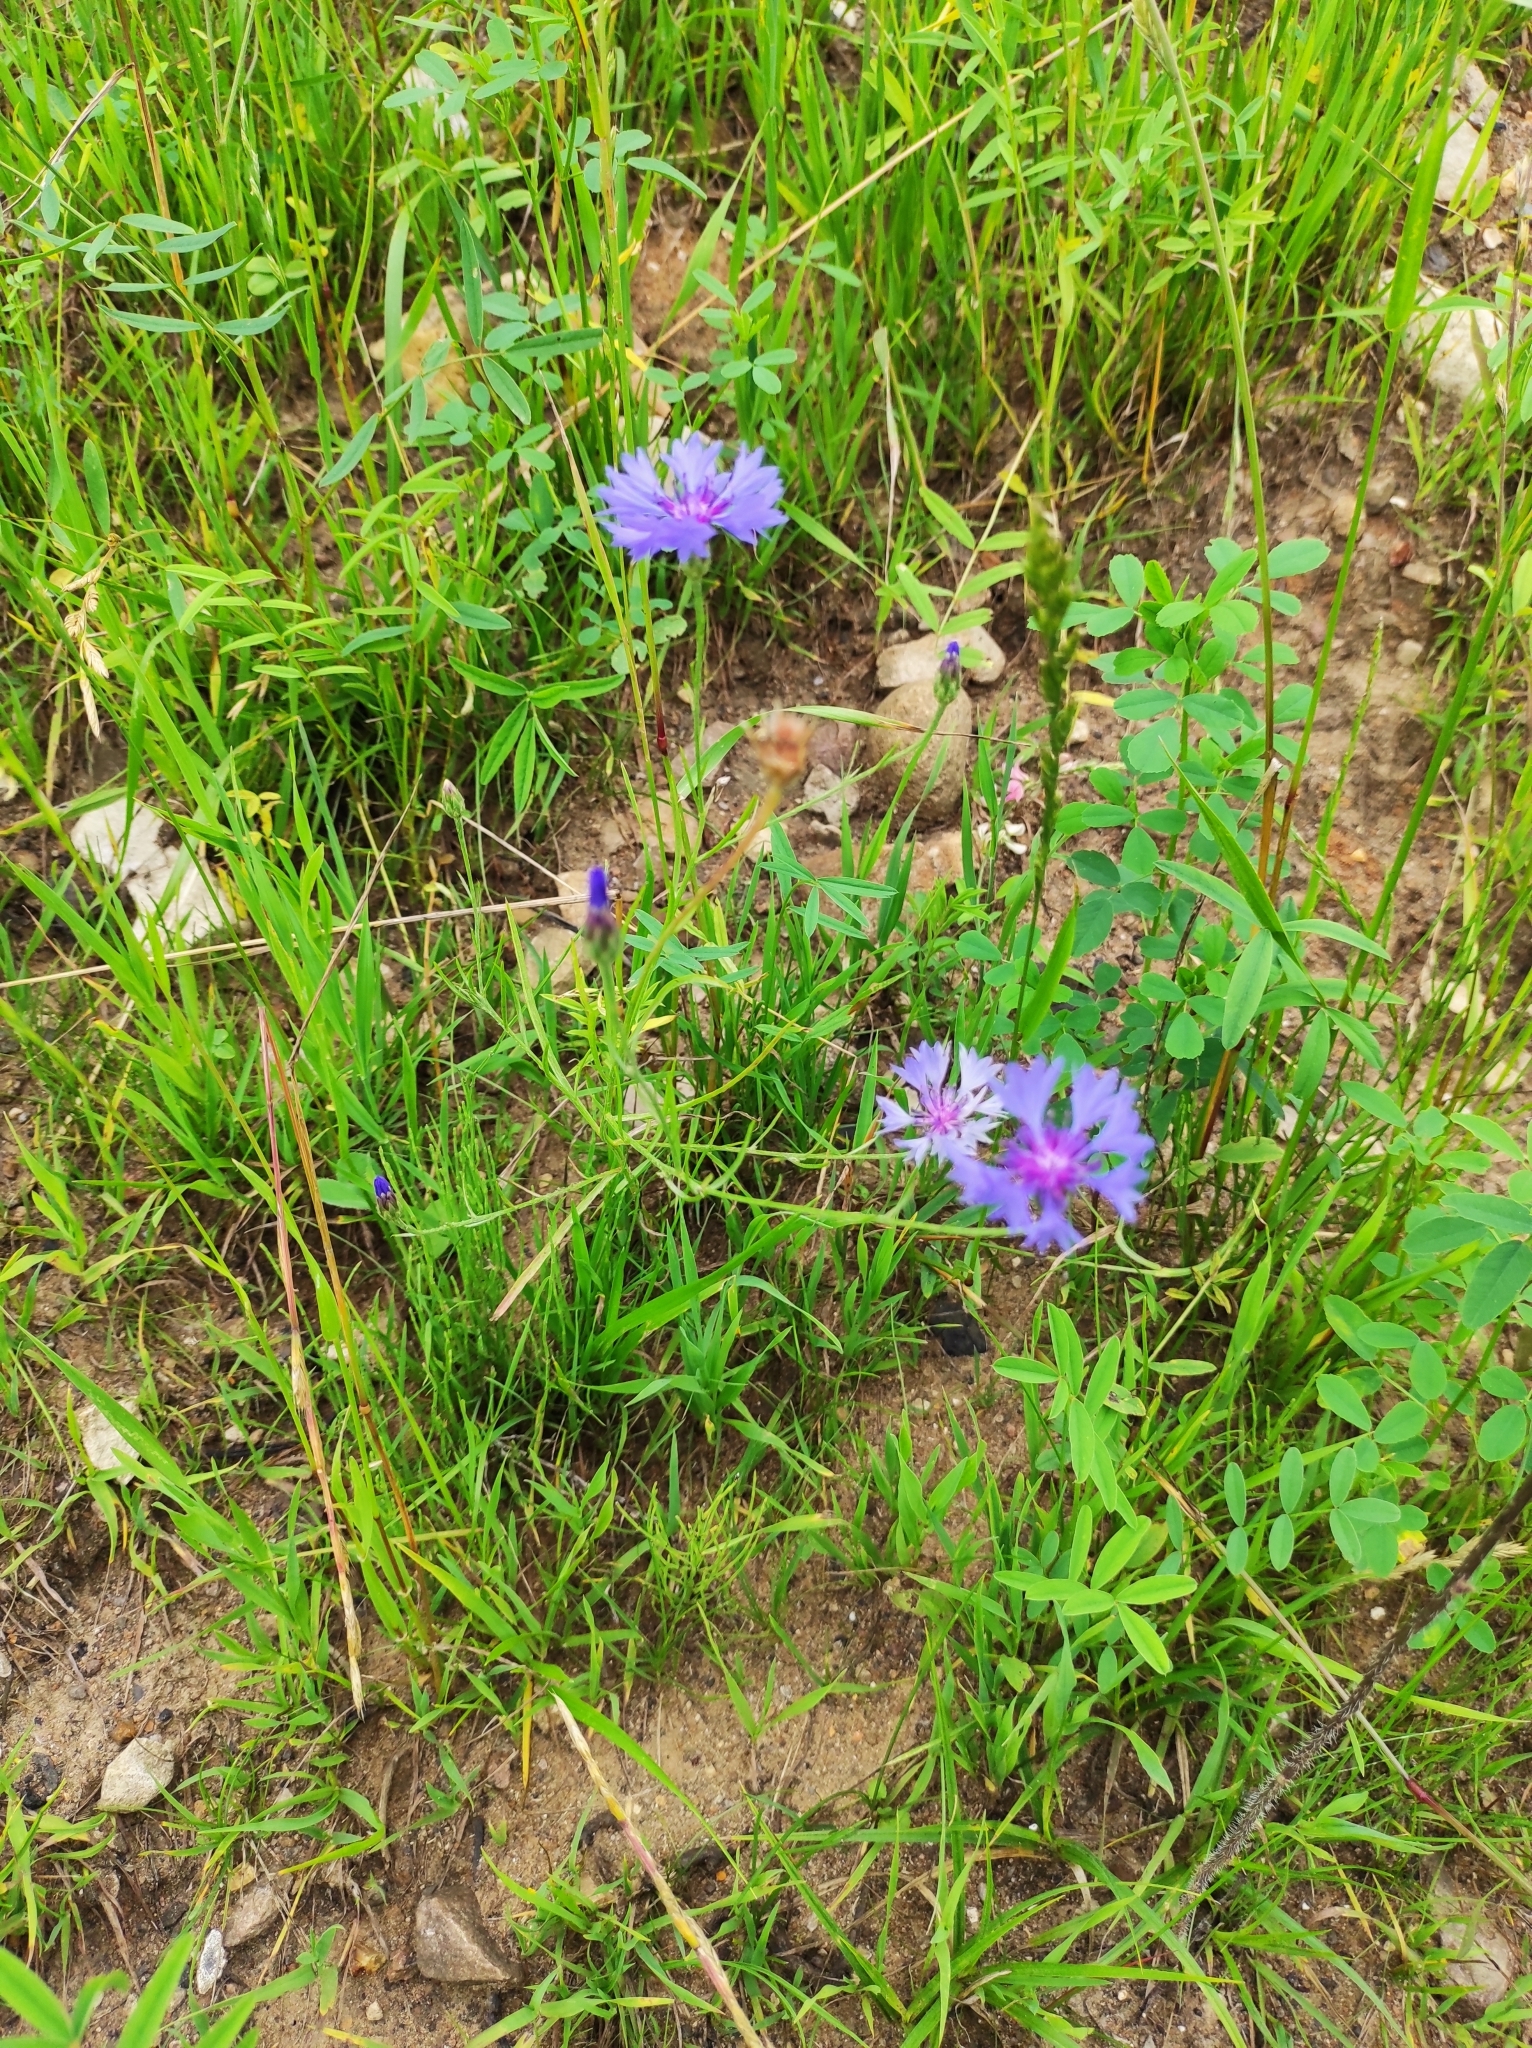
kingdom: Plantae
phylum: Tracheophyta
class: Magnoliopsida
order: Asterales
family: Asteraceae
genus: Centaurea
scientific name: Centaurea cyanus
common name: Cornflower
